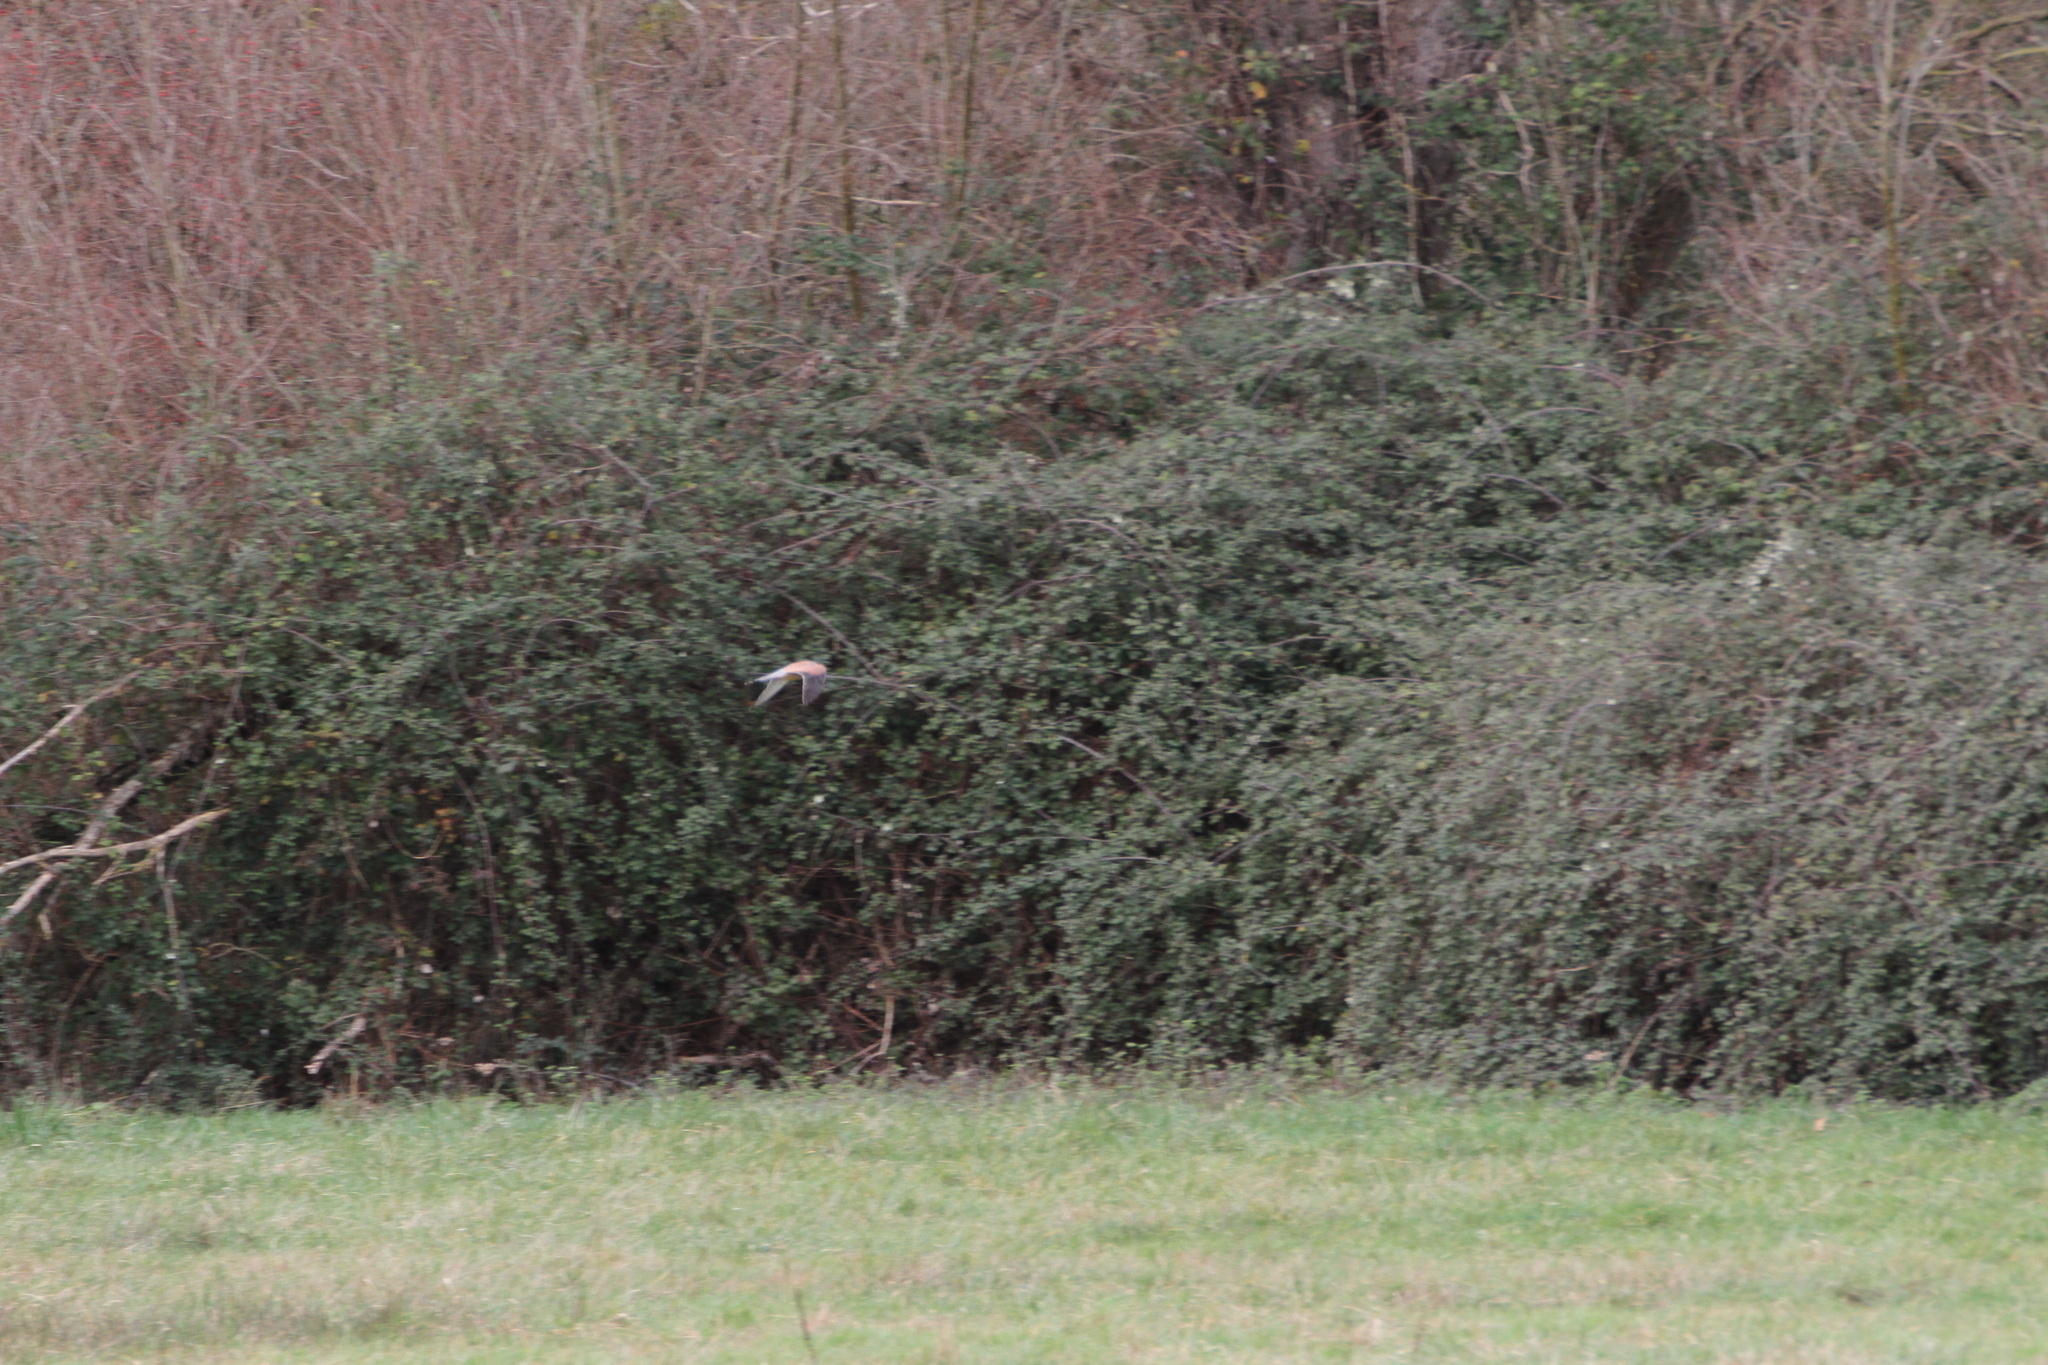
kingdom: Animalia
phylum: Chordata
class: Aves
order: Falconiformes
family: Falconidae
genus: Falco
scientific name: Falco tinnunculus
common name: Common kestrel
